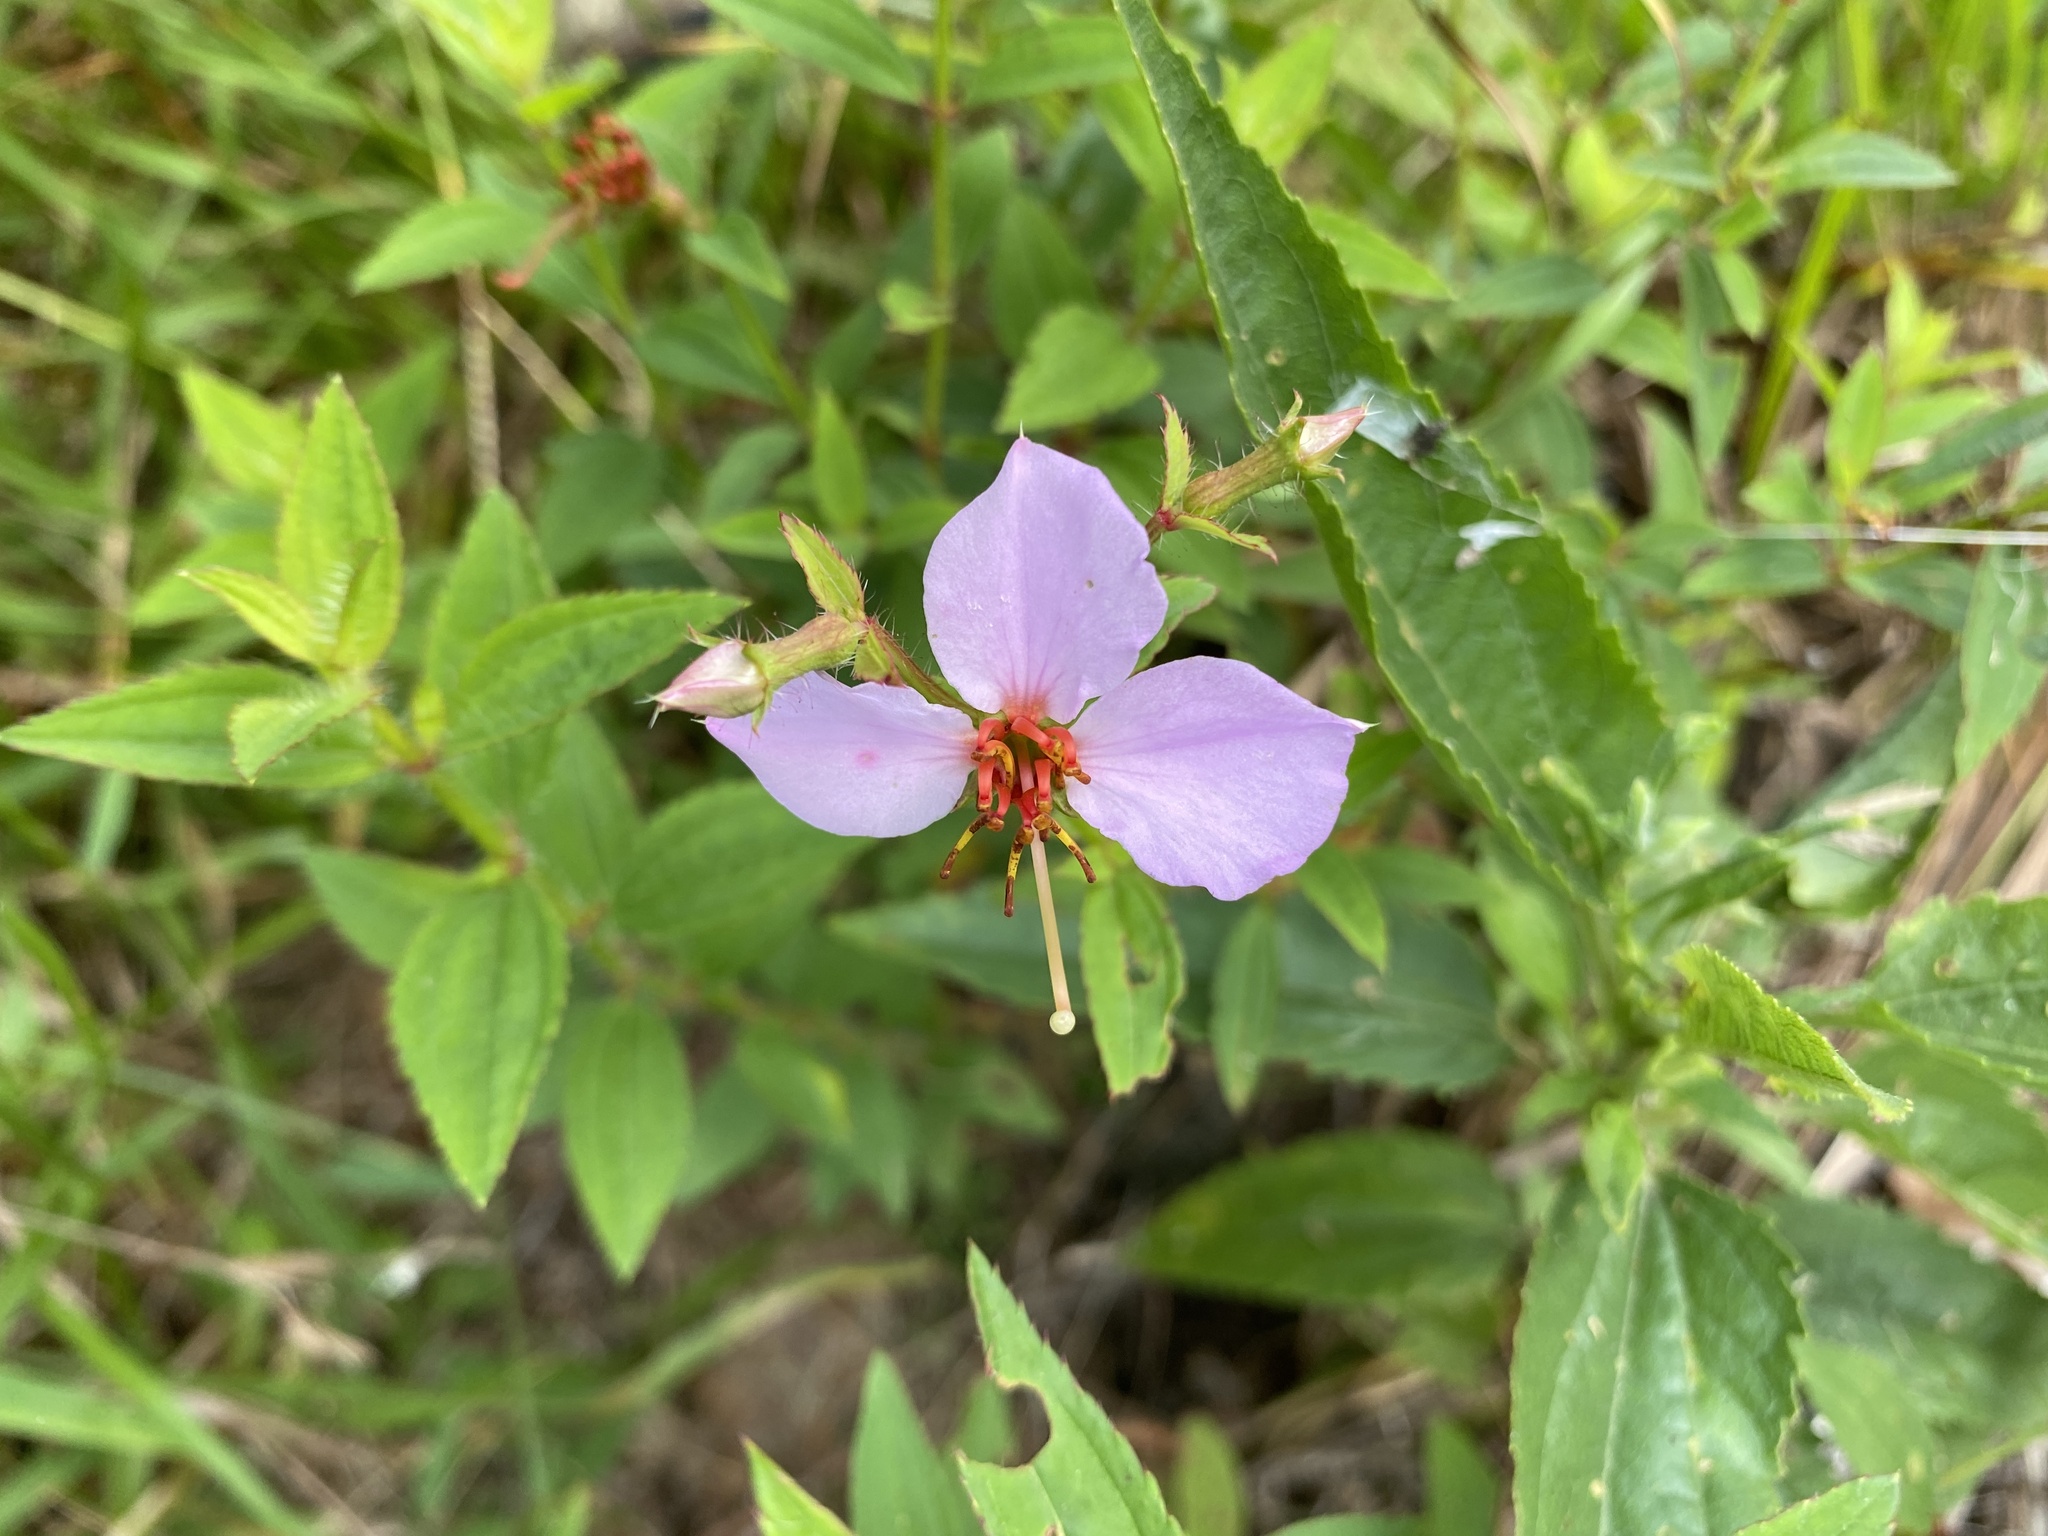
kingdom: Plantae
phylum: Tracheophyta
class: Magnoliopsida
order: Myrtales
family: Melastomataceae
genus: Rhexia
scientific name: Rhexia mariana
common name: Dull meadow-pitcher
